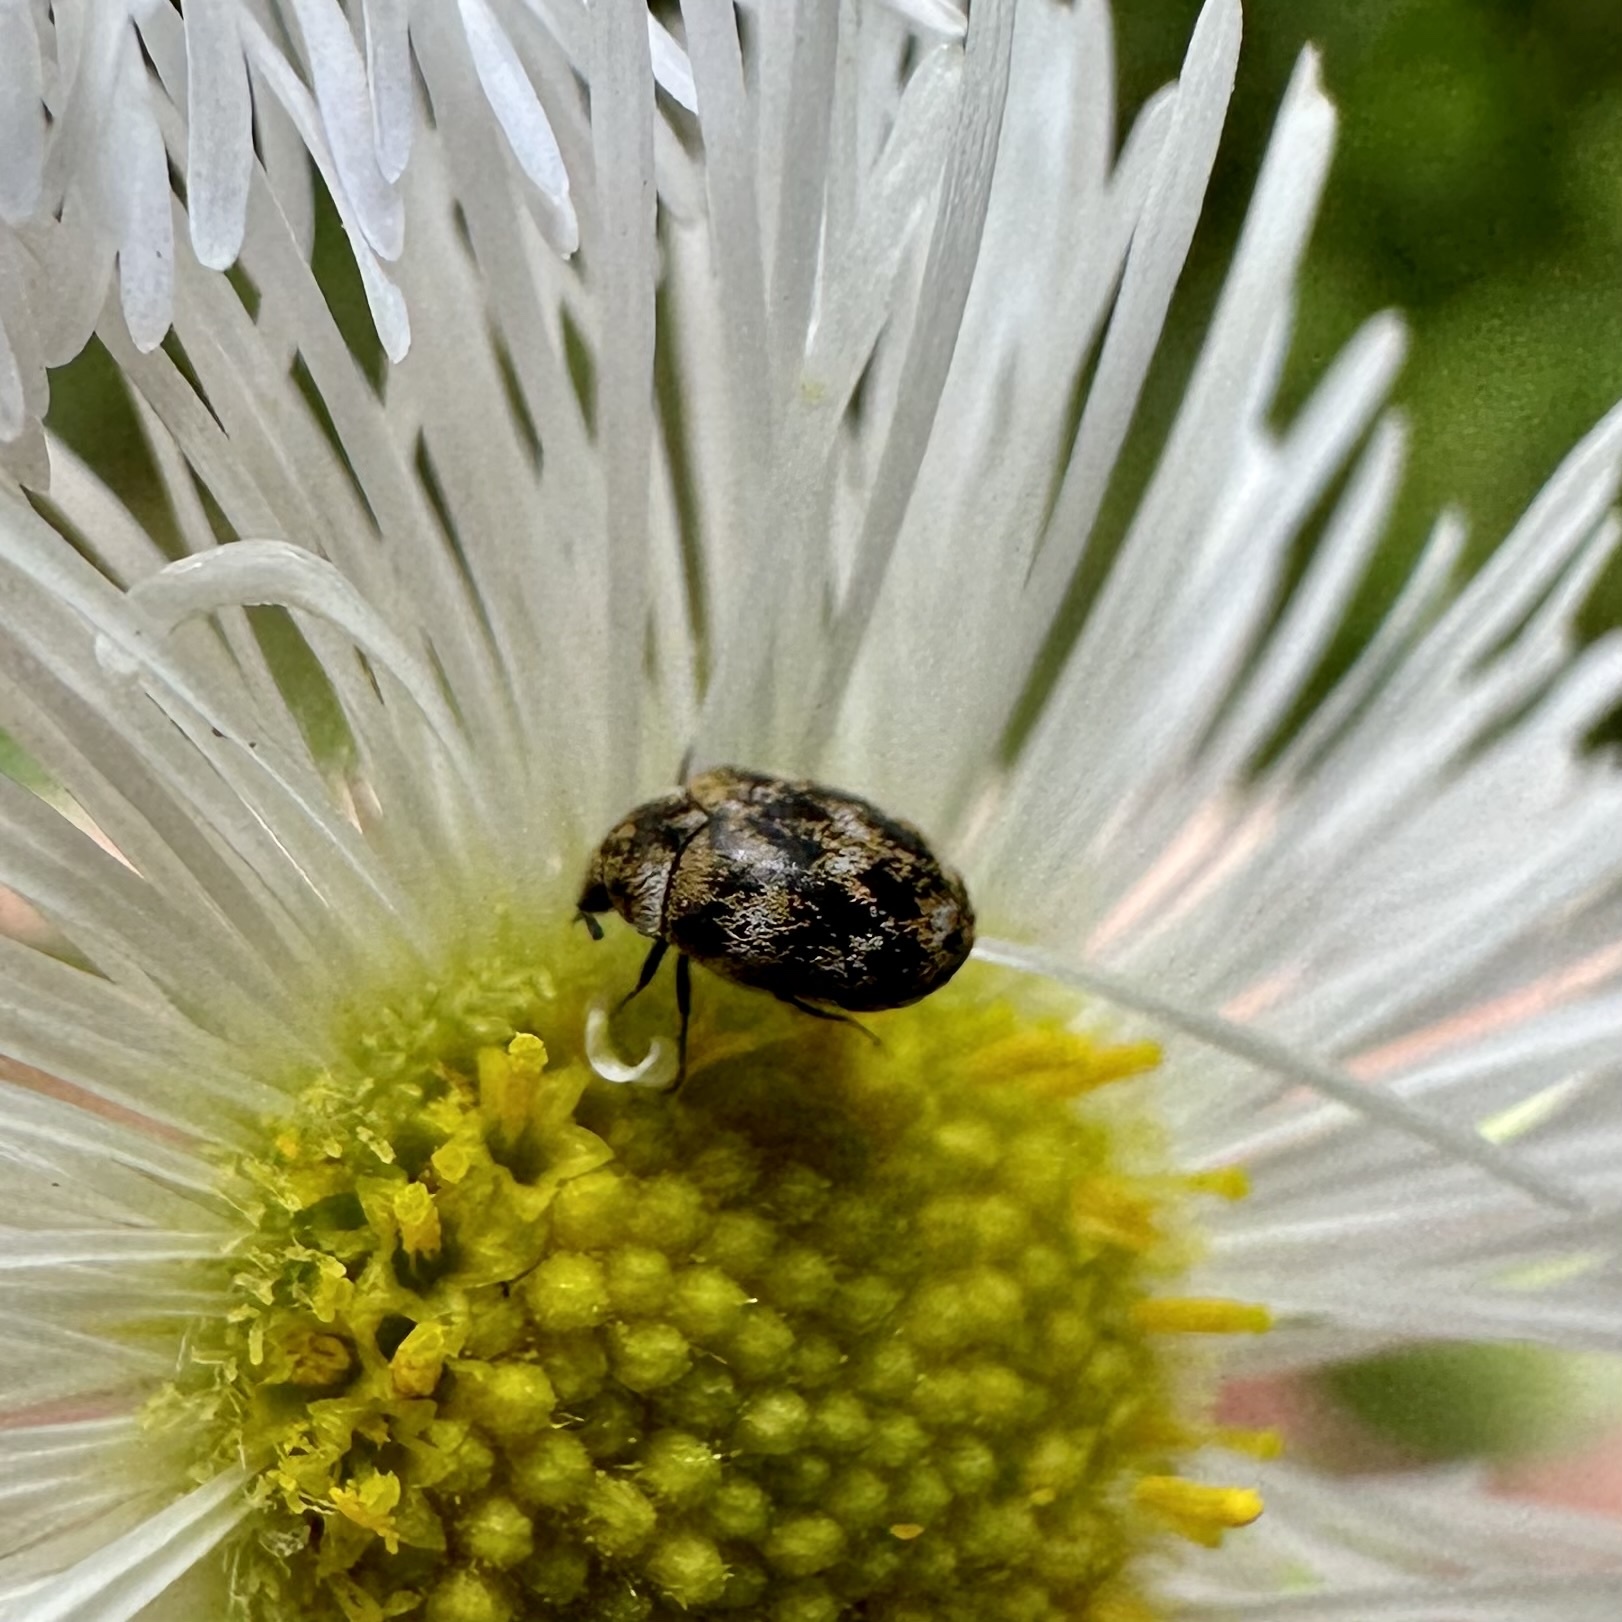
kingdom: Animalia
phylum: Arthropoda
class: Insecta
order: Coleoptera
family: Dermestidae
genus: Anthrenus
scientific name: Anthrenus verbasci
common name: Varied carpet beetle
